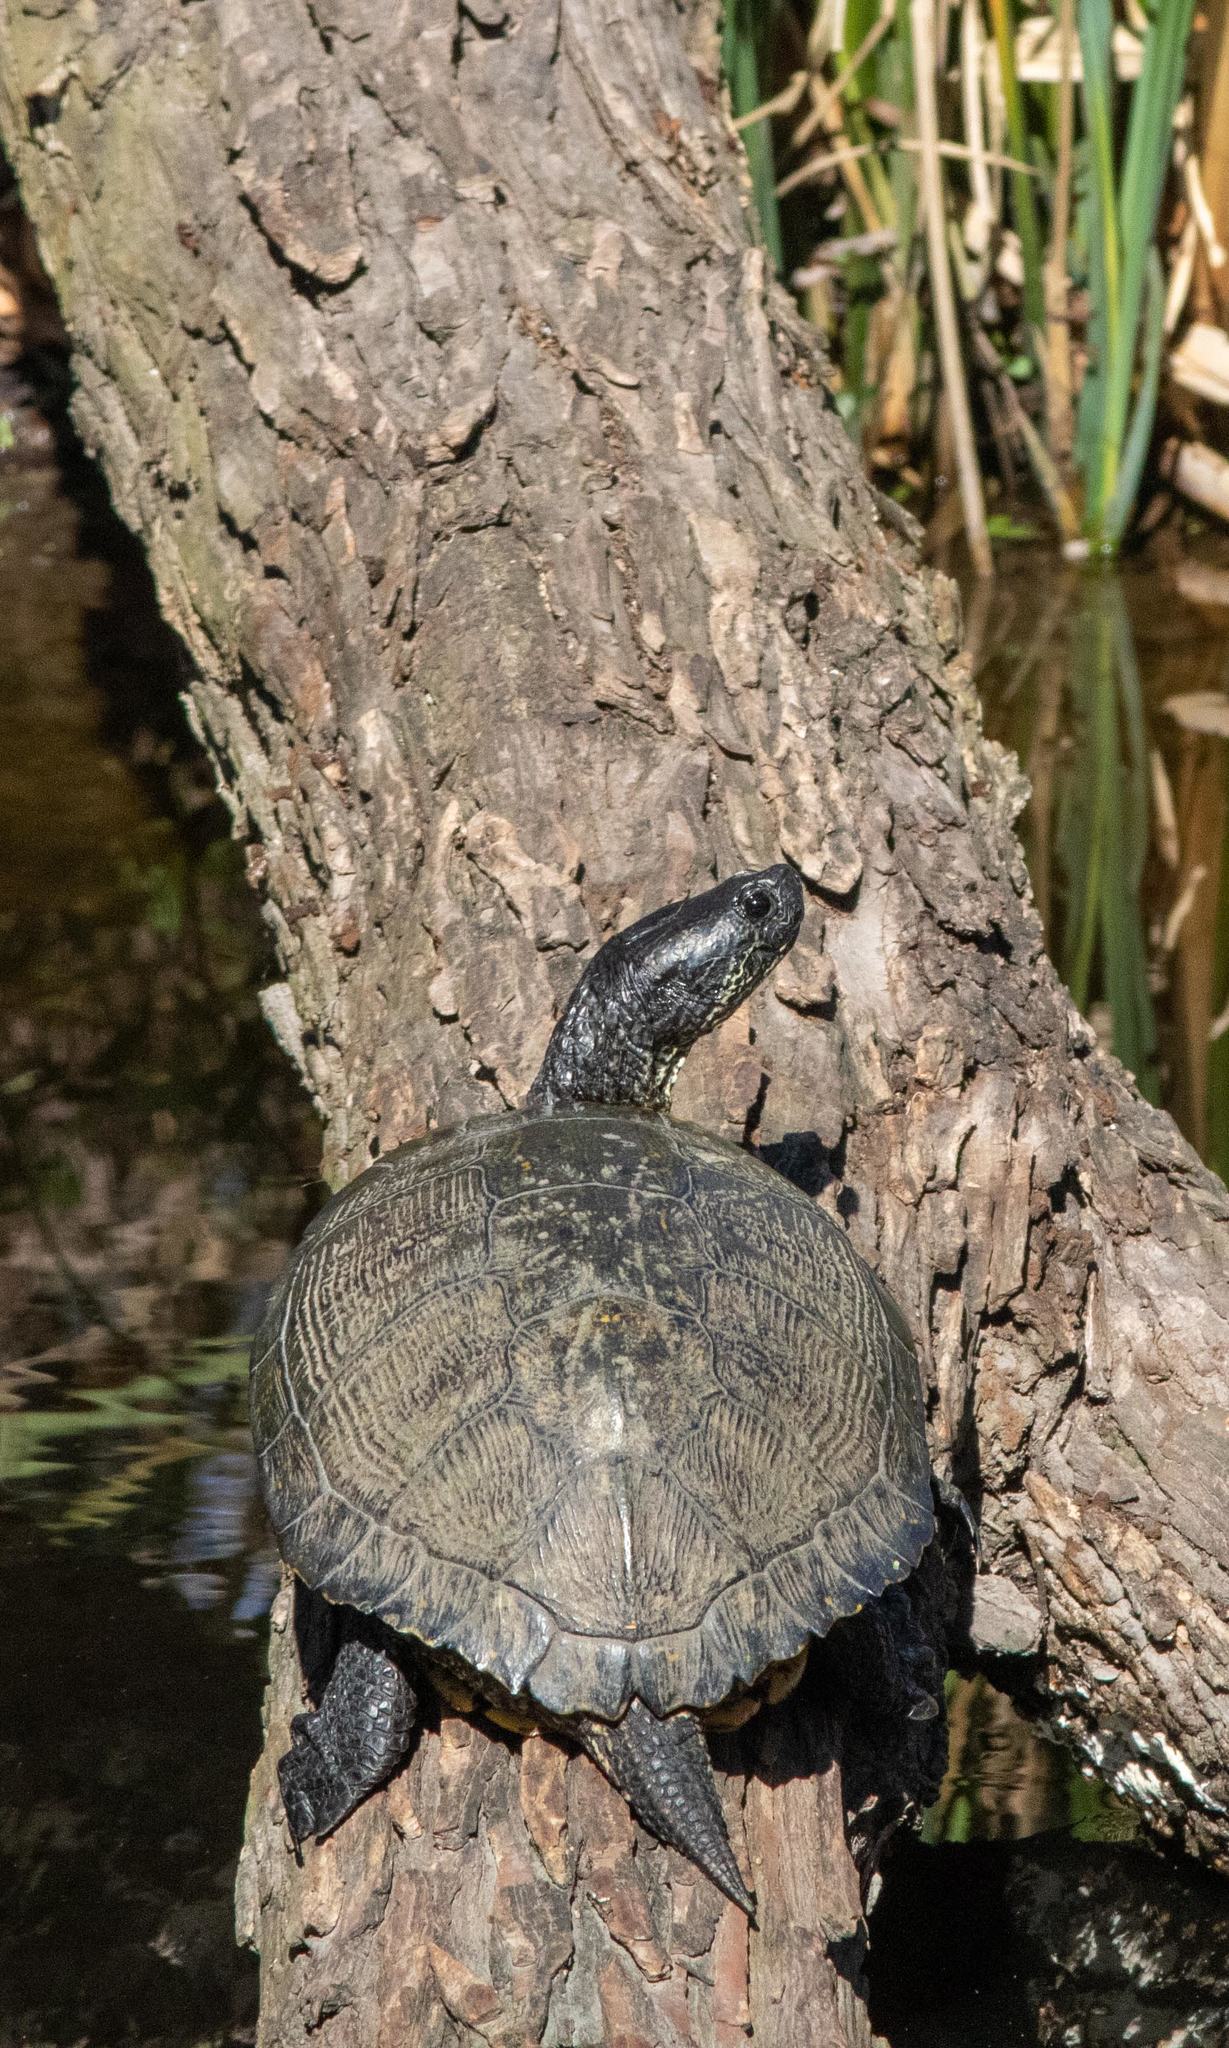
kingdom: Animalia
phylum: Chordata
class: Testudines
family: Emydidae
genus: Trachemys
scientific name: Trachemys scripta
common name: Slider
